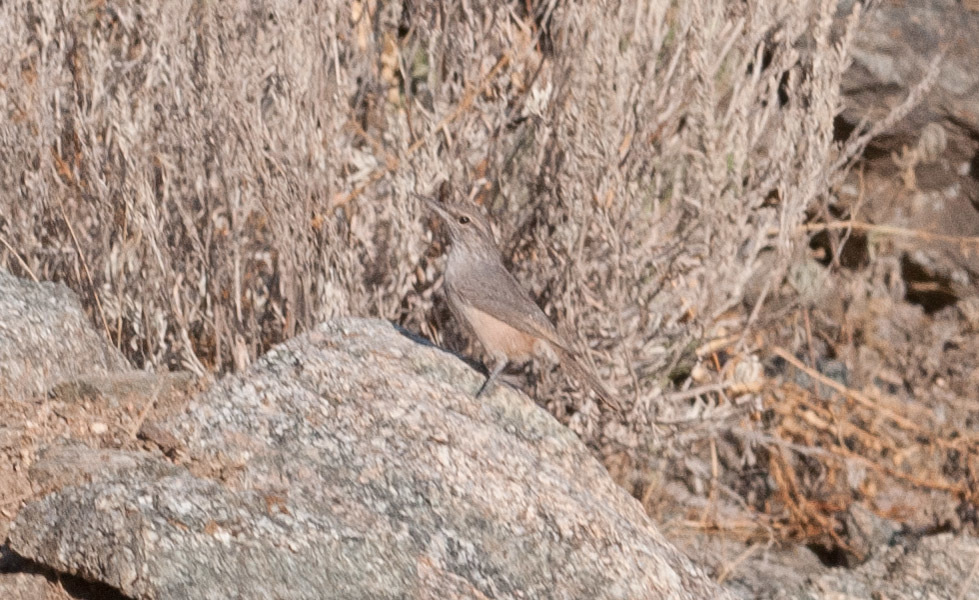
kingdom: Animalia
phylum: Chordata
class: Aves
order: Passeriformes
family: Troglodytidae
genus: Salpinctes
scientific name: Salpinctes obsoletus
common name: Rock wren
